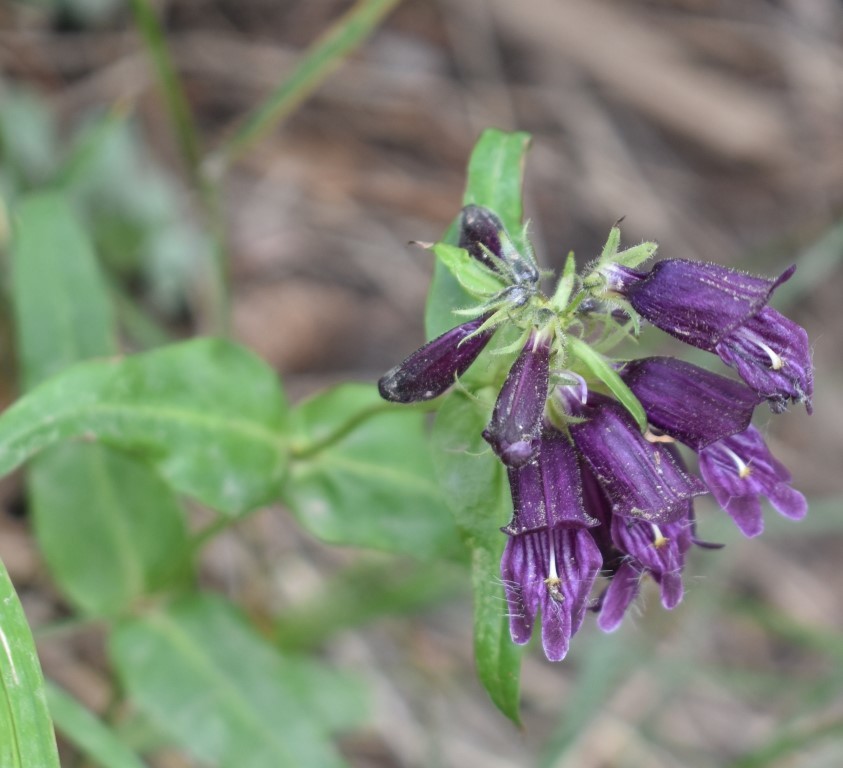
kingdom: Plantae
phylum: Tracheophyta
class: Magnoliopsida
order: Lamiales
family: Plantaginaceae
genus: Penstemon
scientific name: Penstemon whippleanus
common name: Whipple's penstemon
